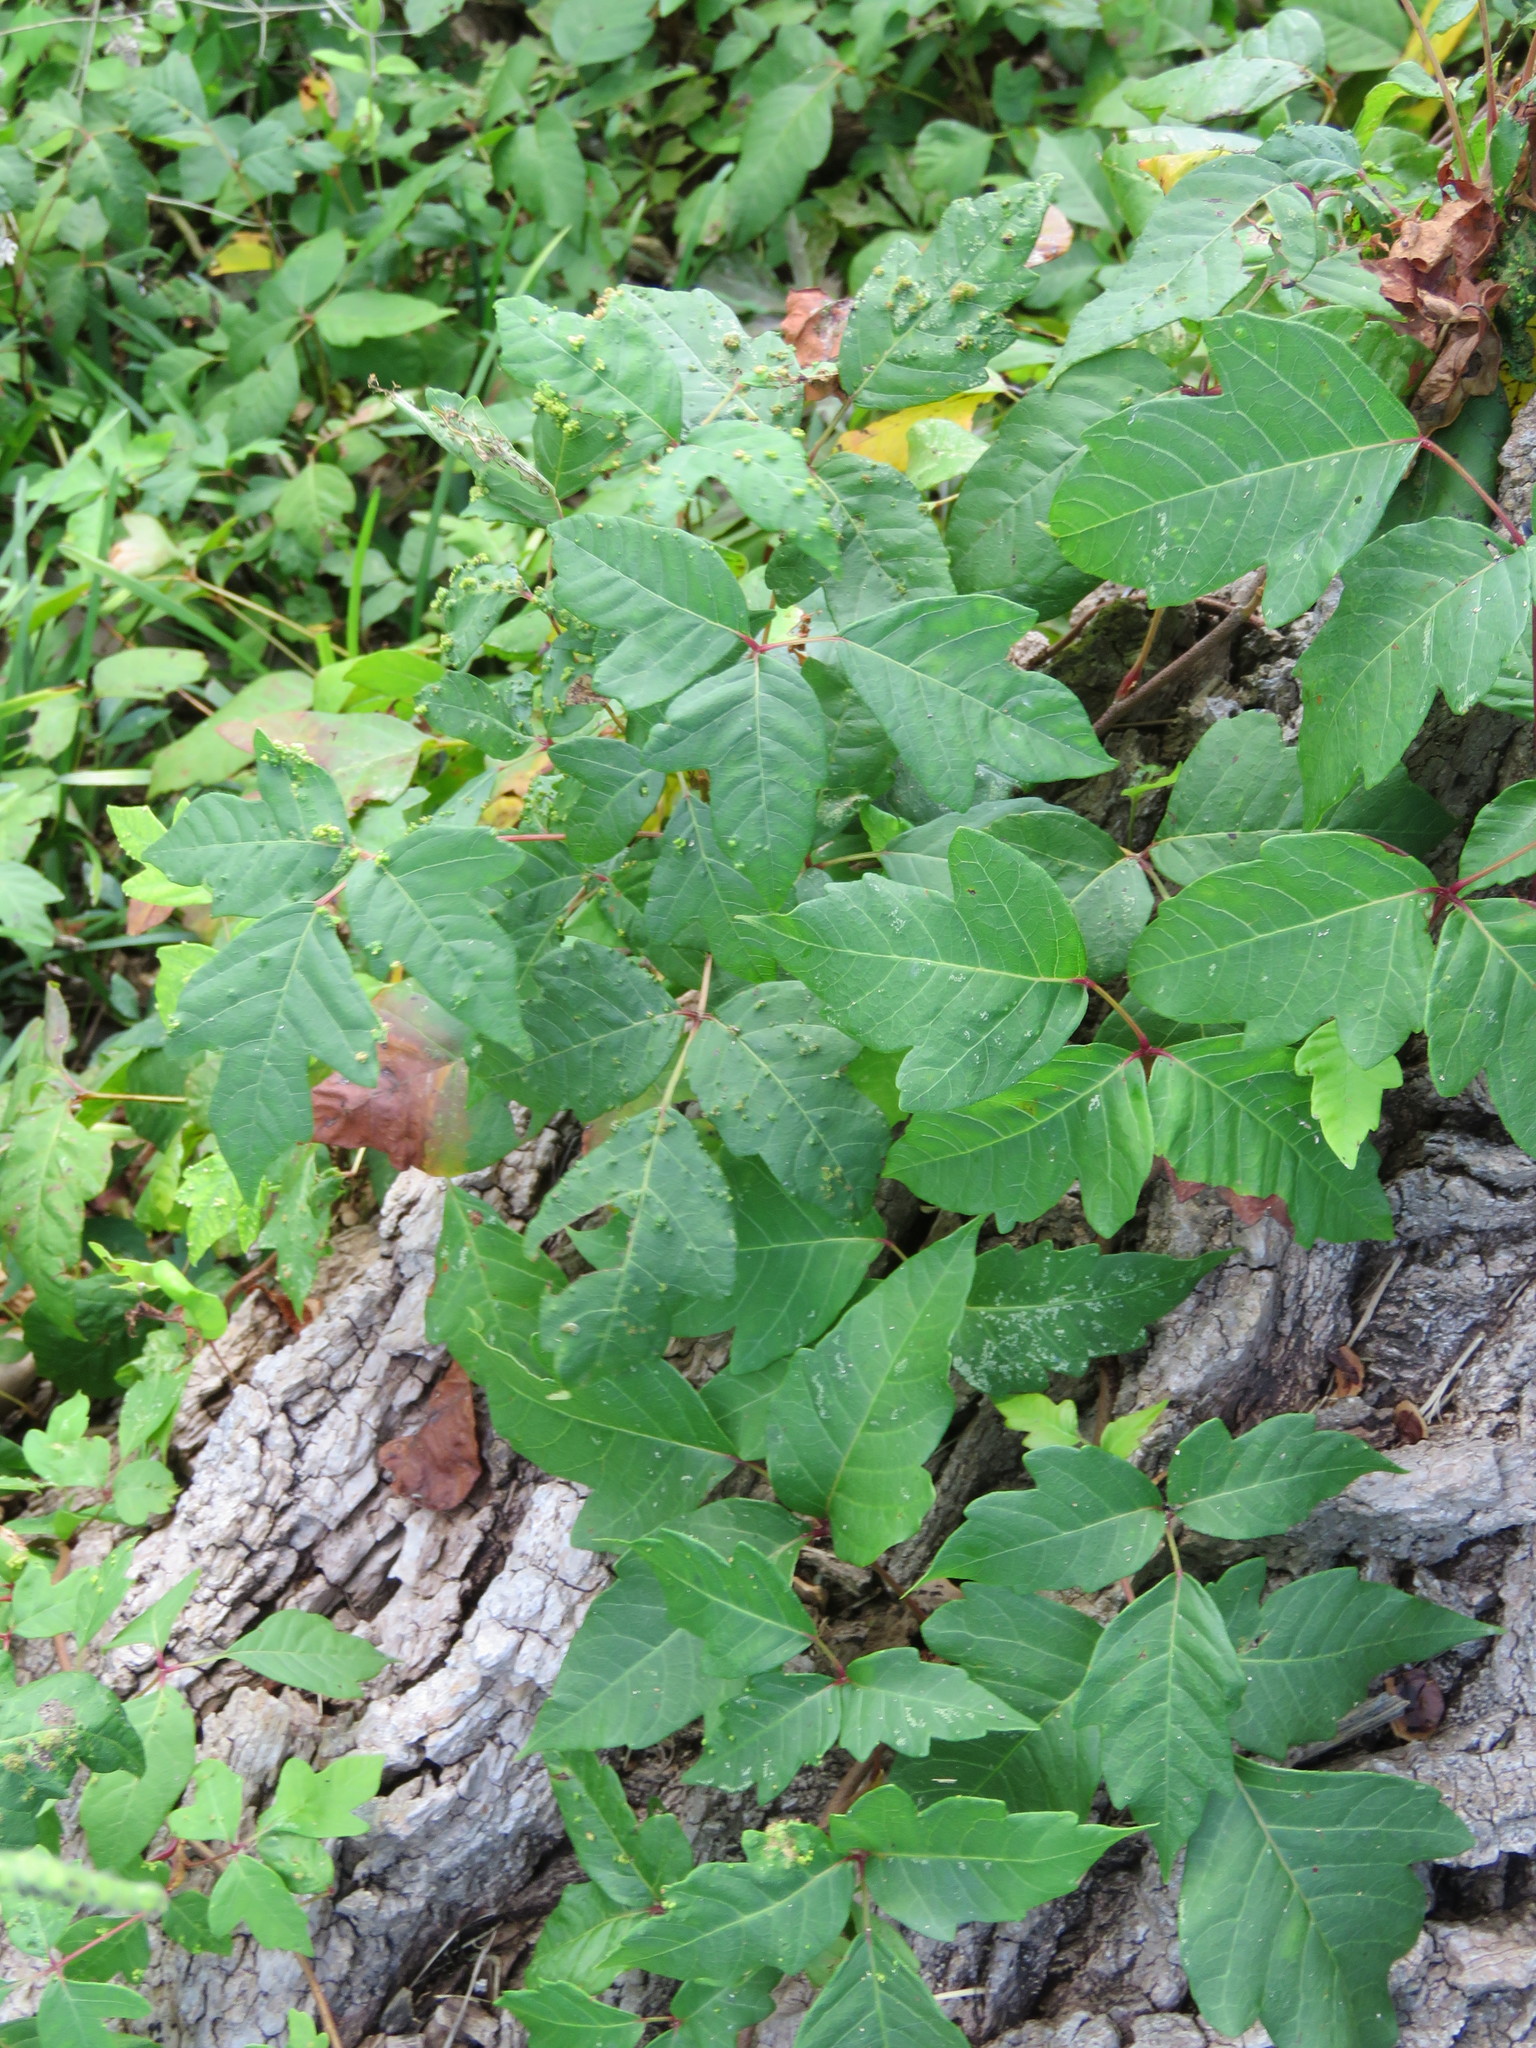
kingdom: Plantae
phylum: Tracheophyta
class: Magnoliopsida
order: Sapindales
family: Anacardiaceae
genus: Toxicodendron
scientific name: Toxicodendron radicans
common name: Poison ivy
